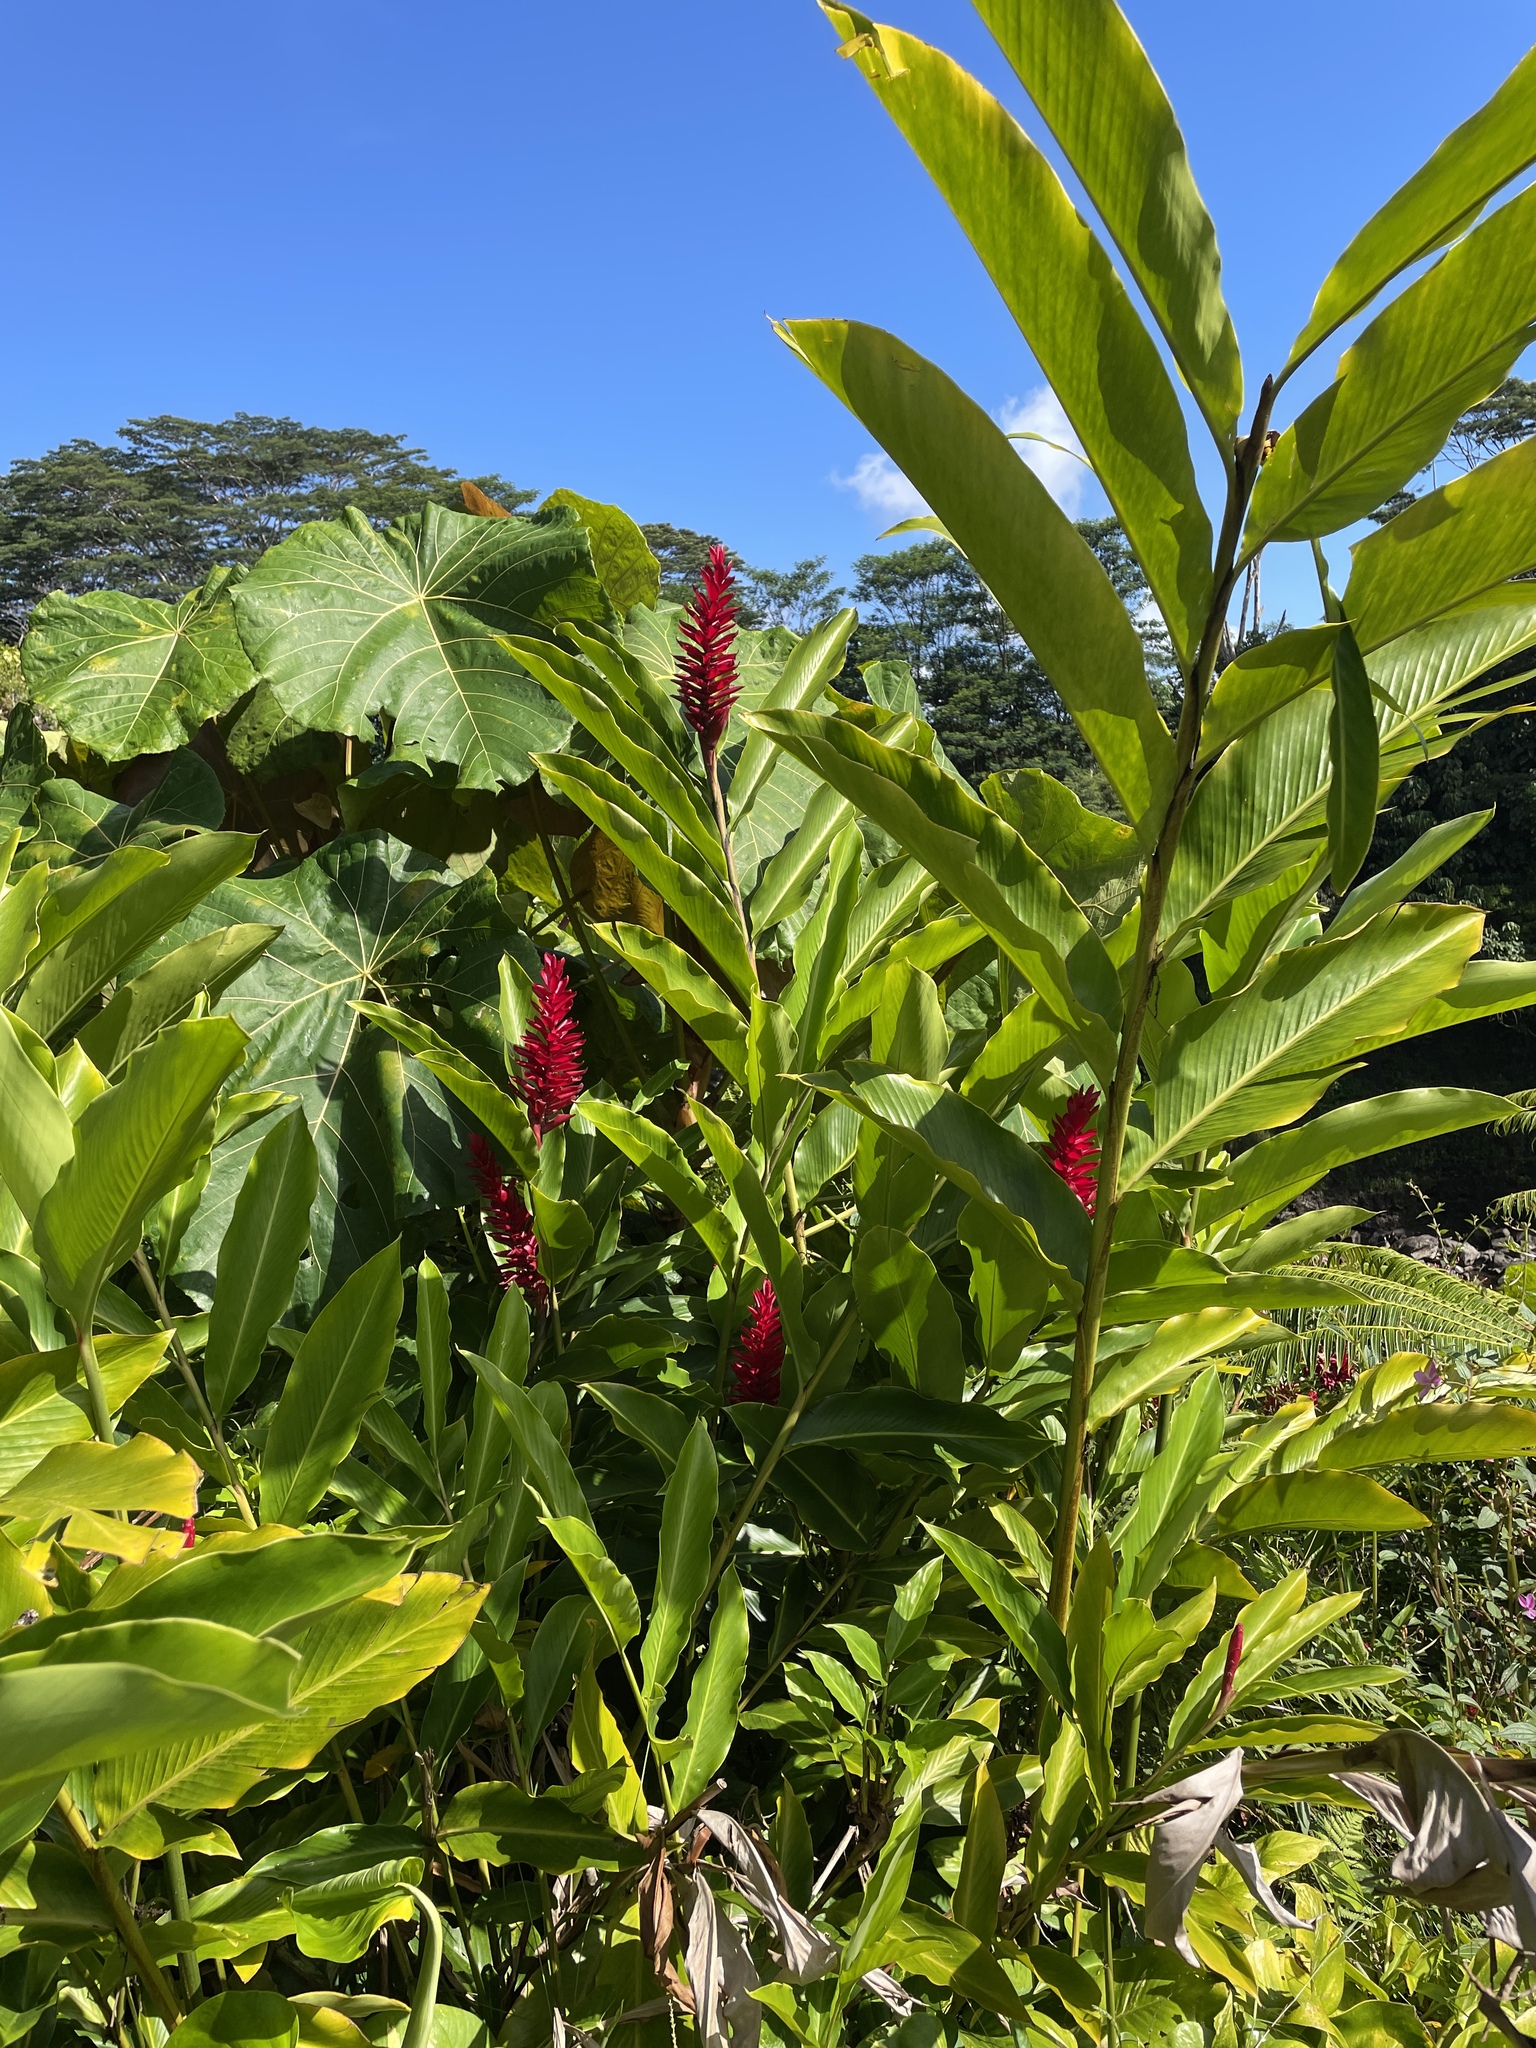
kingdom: Plantae
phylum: Tracheophyta
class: Liliopsida
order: Zingiberales
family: Zingiberaceae
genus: Alpinia
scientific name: Alpinia purpurata
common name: Red ginger
